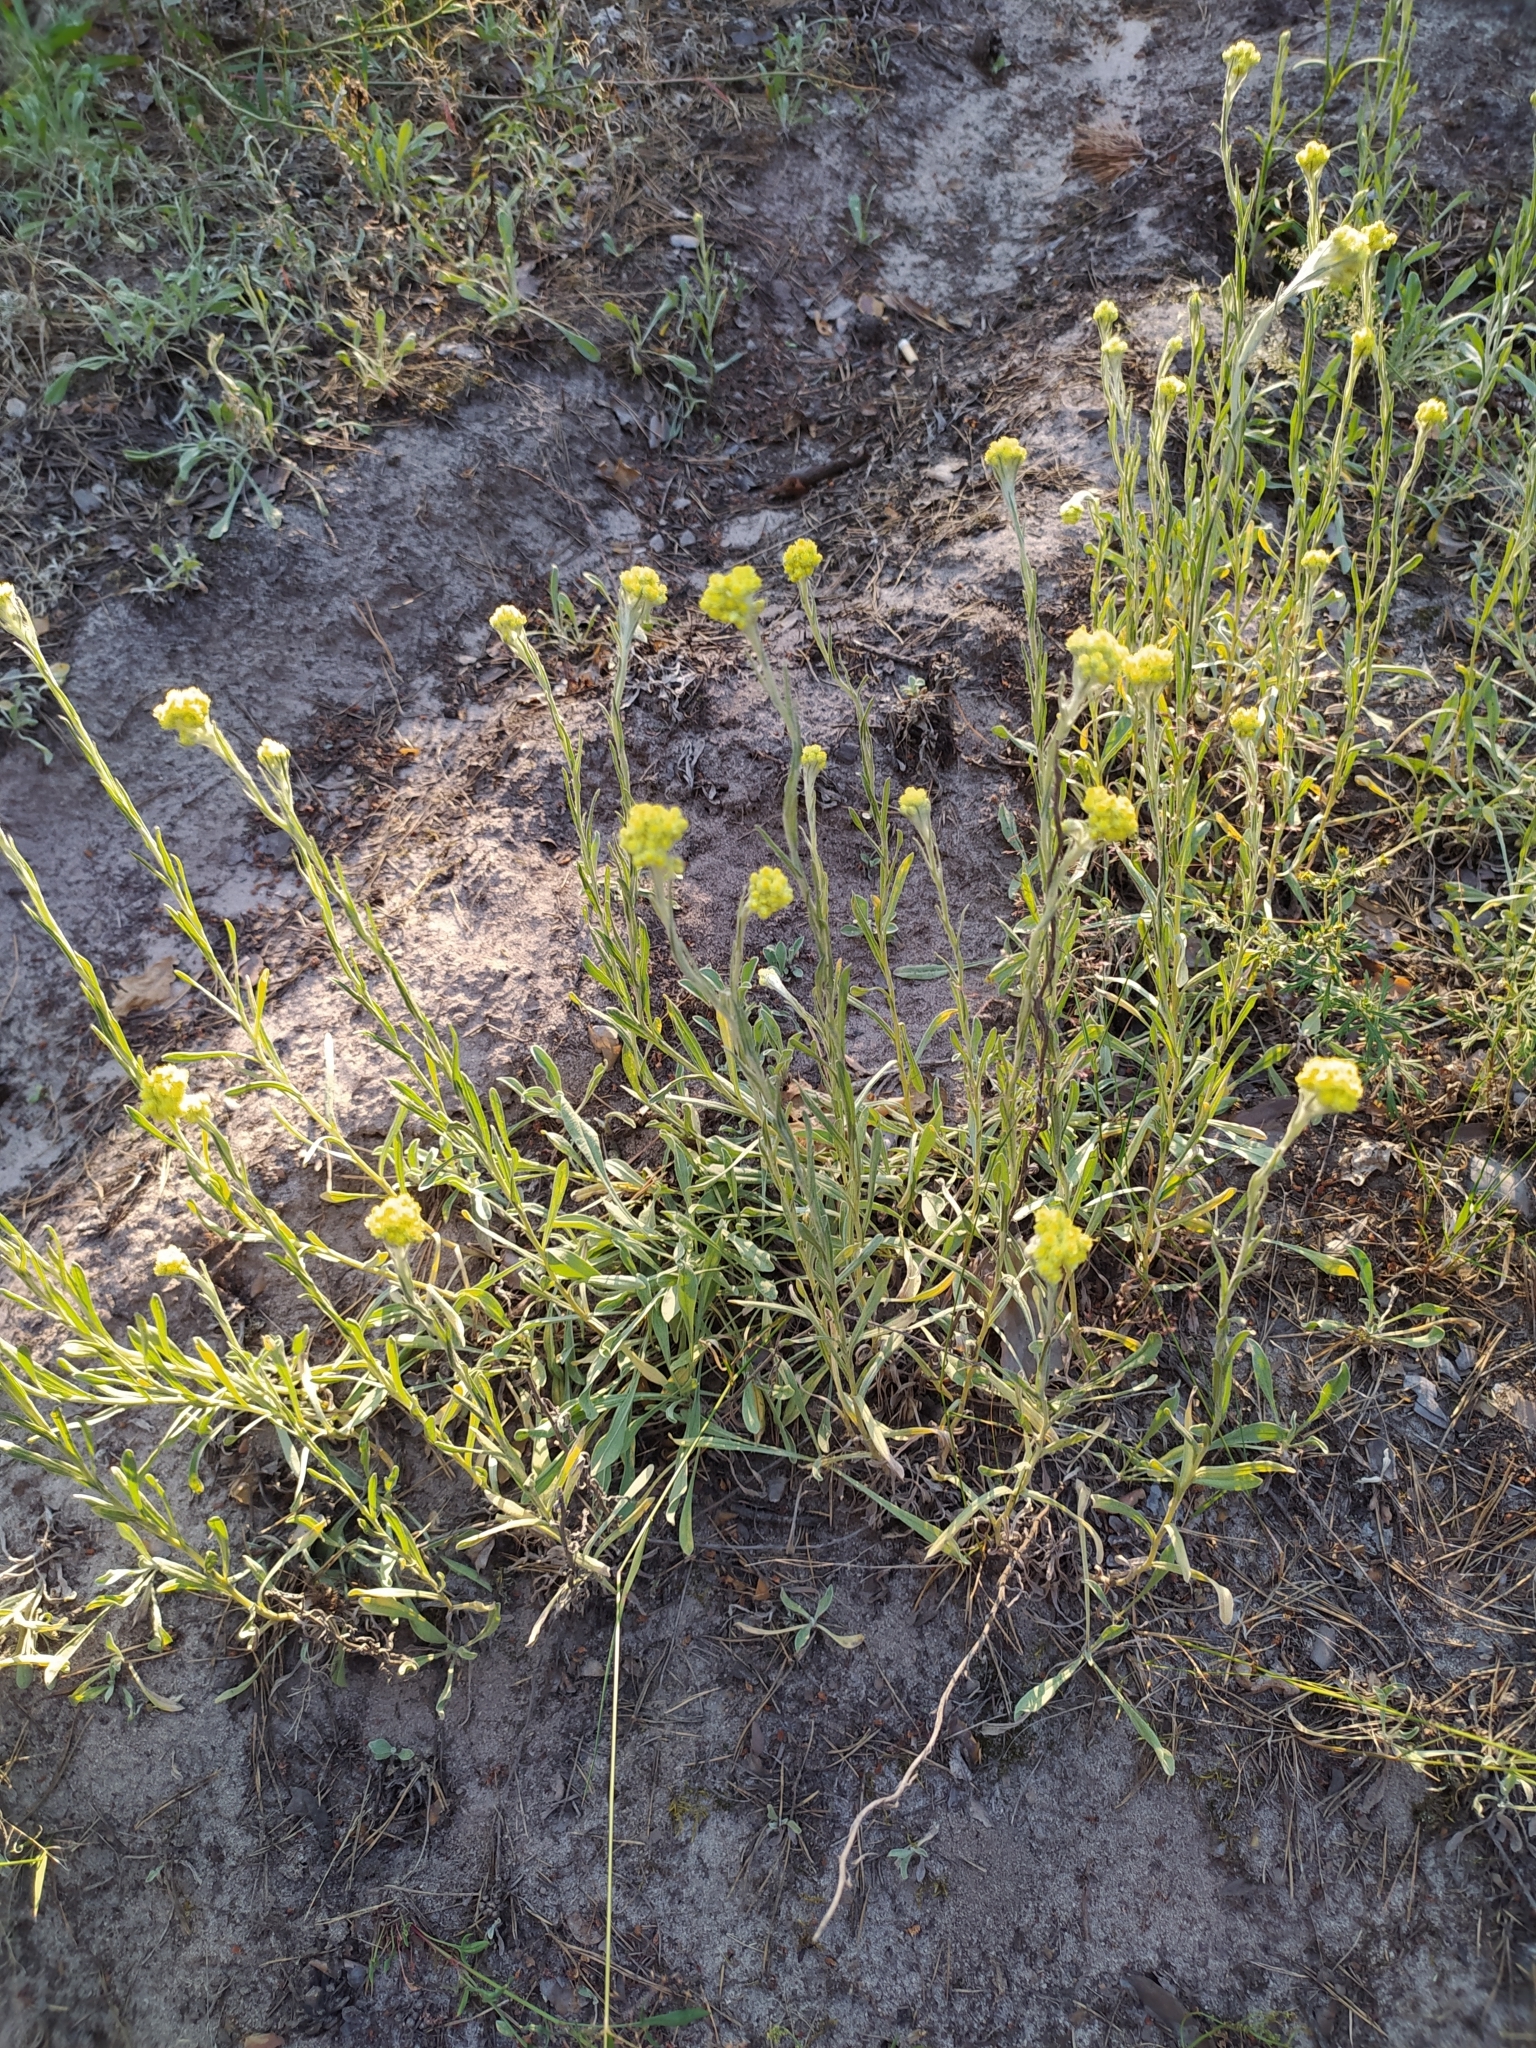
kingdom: Plantae
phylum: Tracheophyta
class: Magnoliopsida
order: Asterales
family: Asteraceae
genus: Helichrysum
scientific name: Helichrysum arenarium
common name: Strawflower
